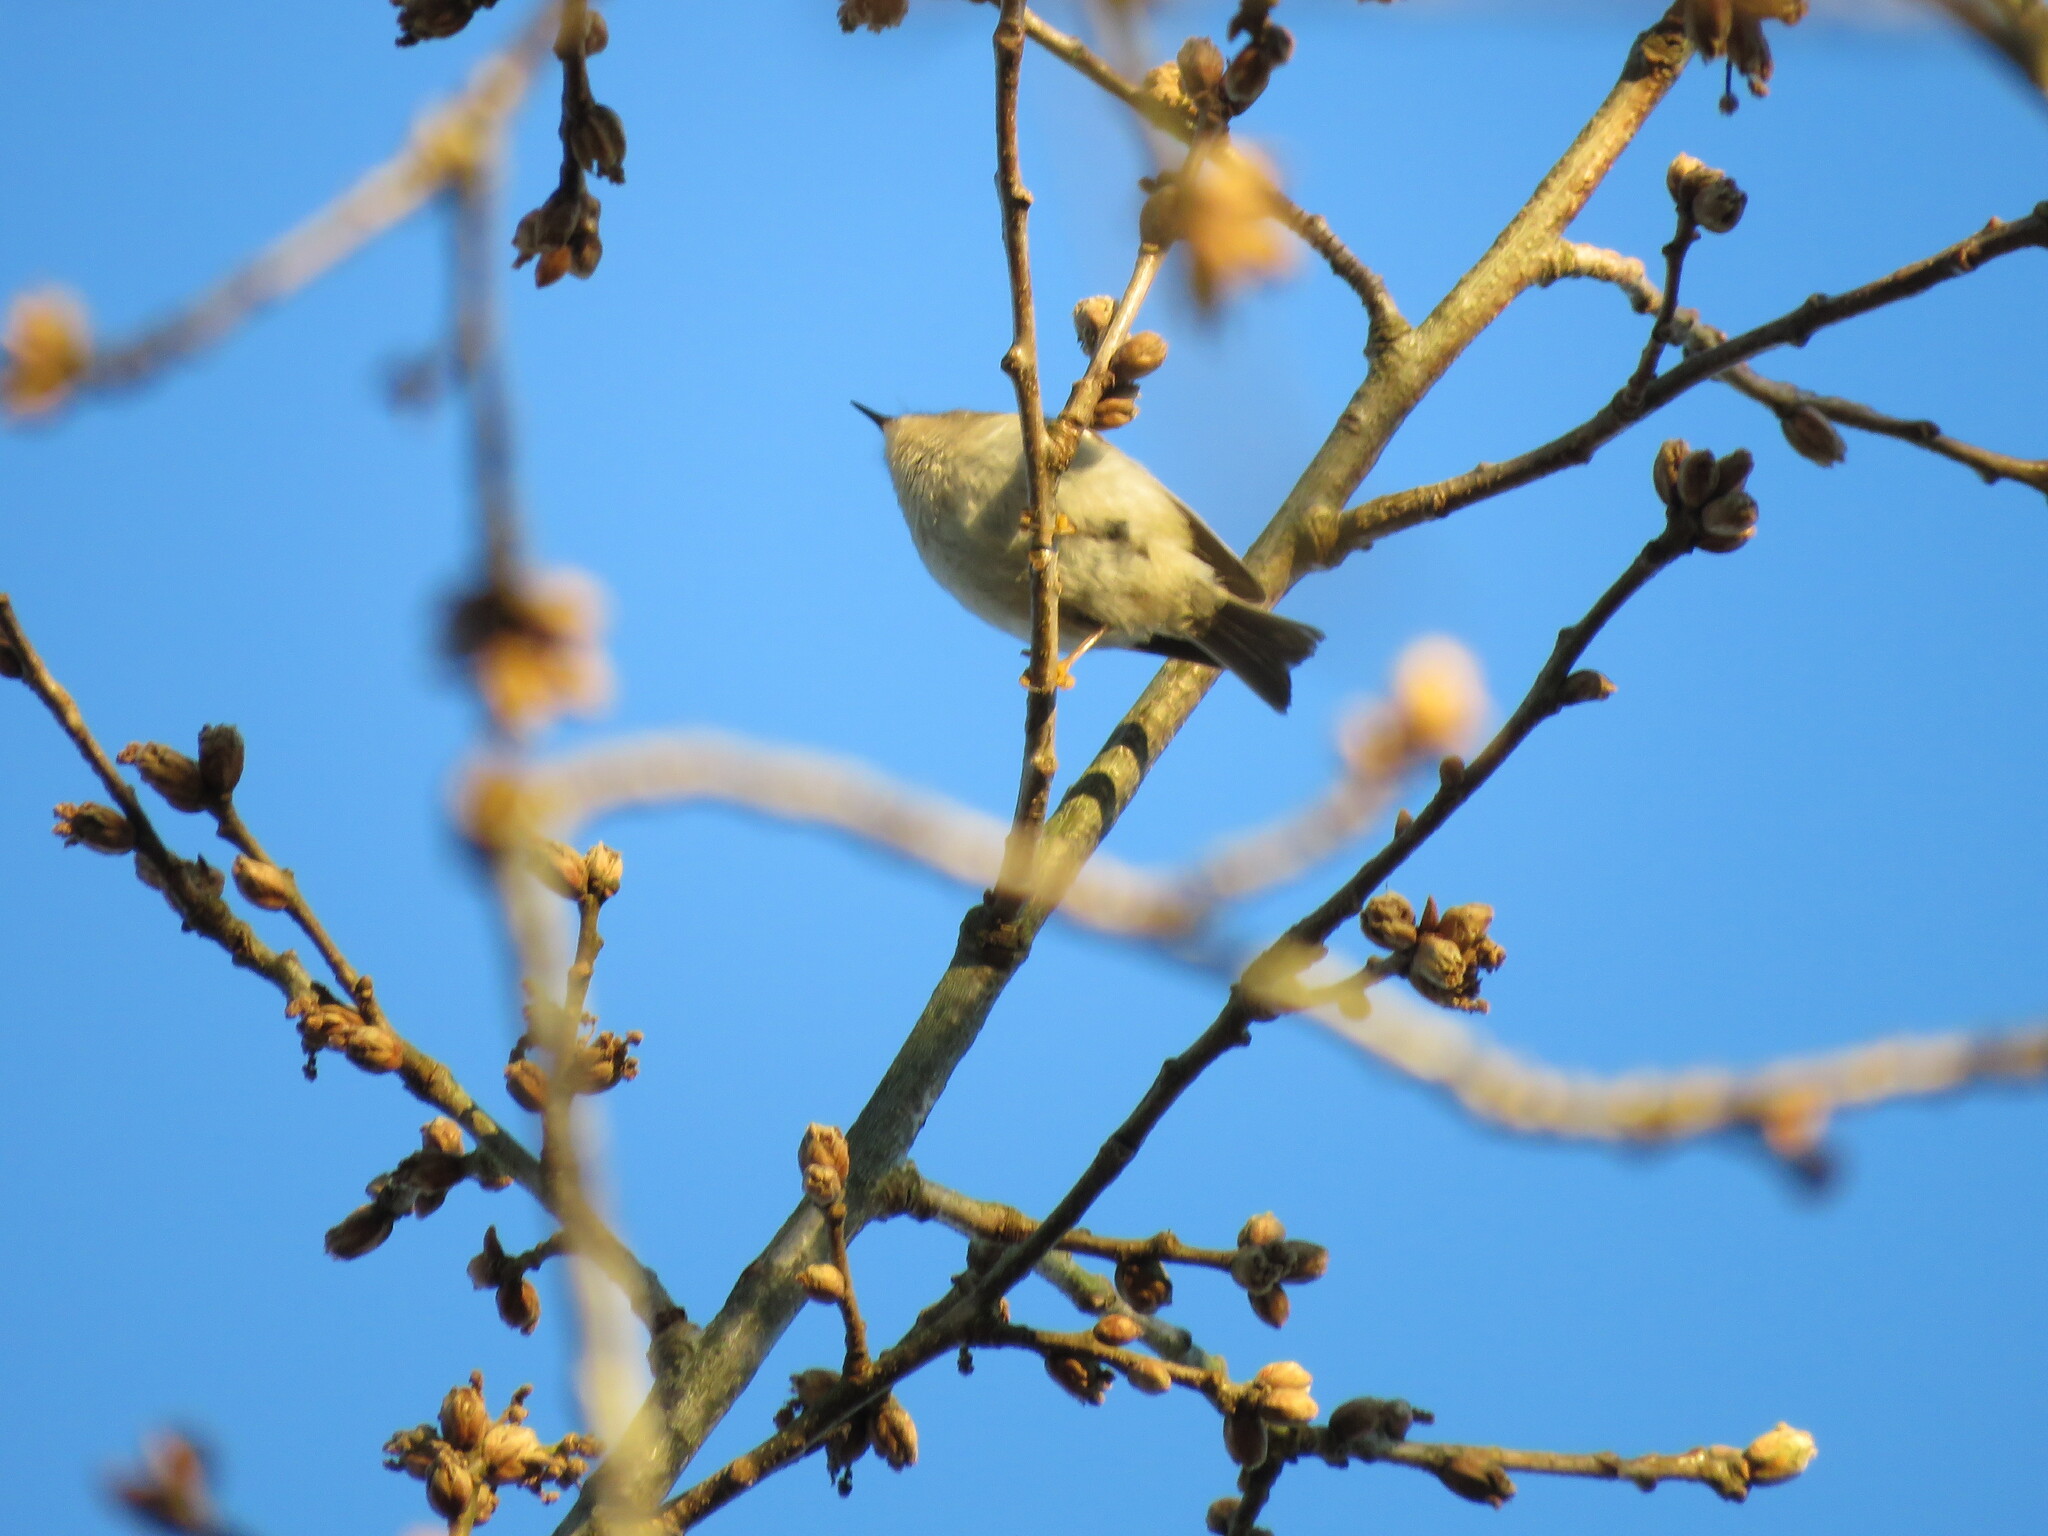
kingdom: Animalia
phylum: Chordata
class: Aves
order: Passeriformes
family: Regulidae
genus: Regulus
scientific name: Regulus ignicapilla
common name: Firecrest
